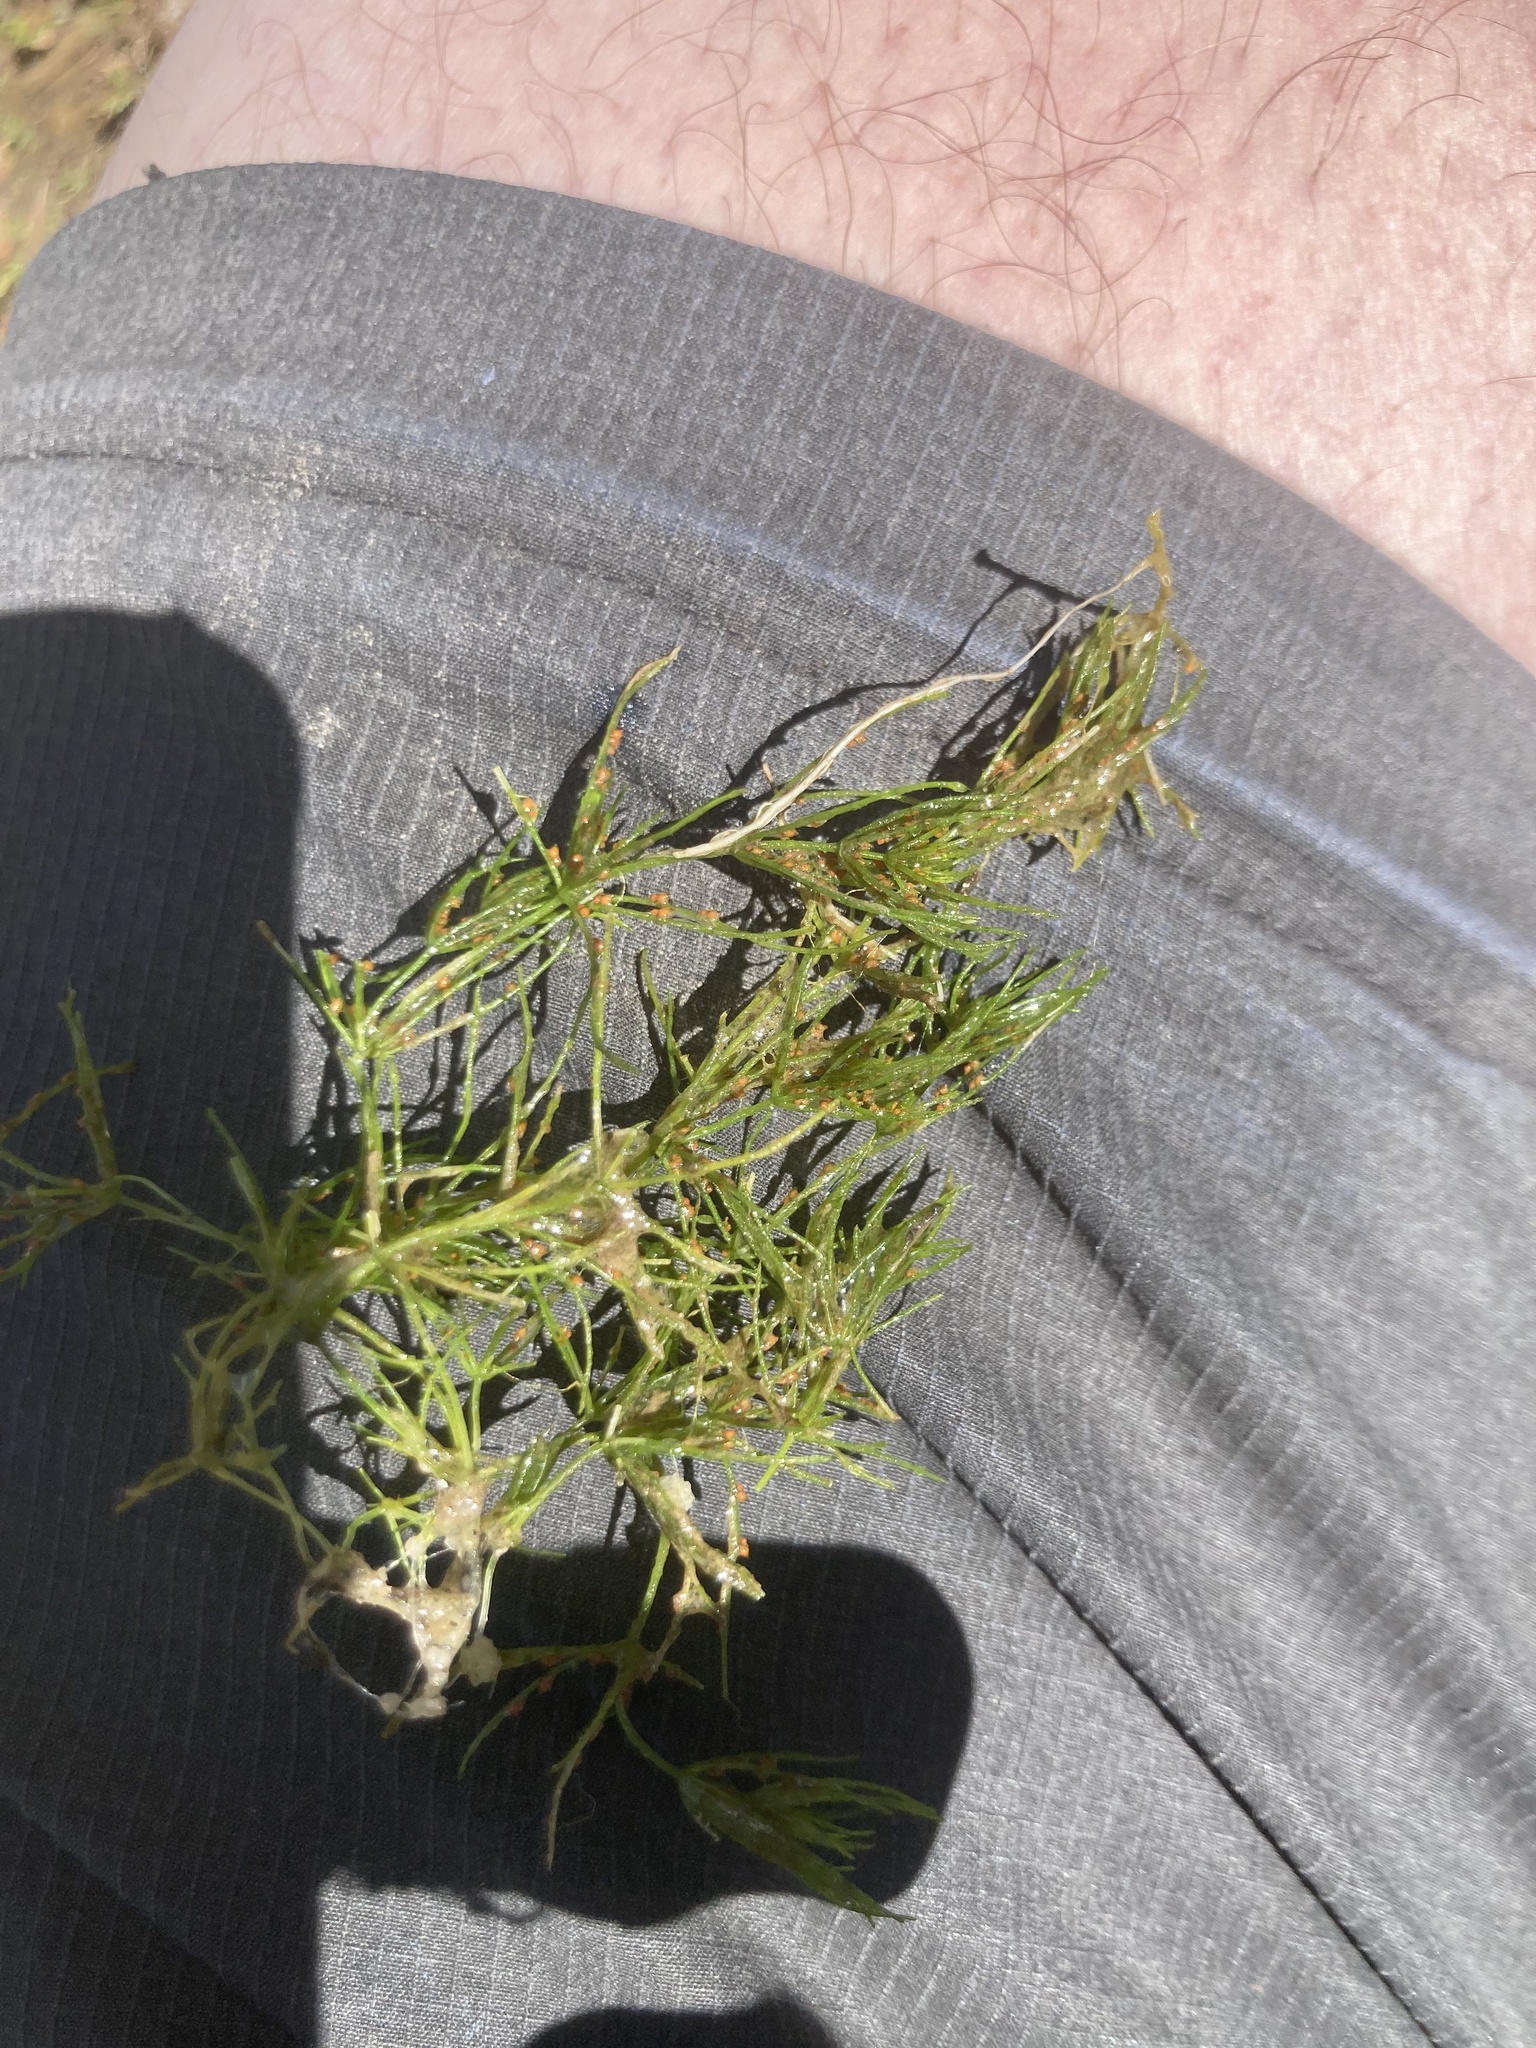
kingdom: Plantae
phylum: Charophyta
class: Charophyceae
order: Charales
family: Characeae
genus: Chara
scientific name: Chara globularis
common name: Fragile stonewort
